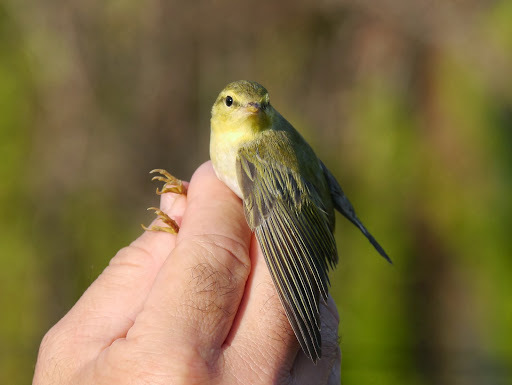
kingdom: Animalia
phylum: Chordata
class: Aves
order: Passeriformes
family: Phylloscopidae
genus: Phylloscopus
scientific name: Phylloscopus sibillatrix
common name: Wood warbler
